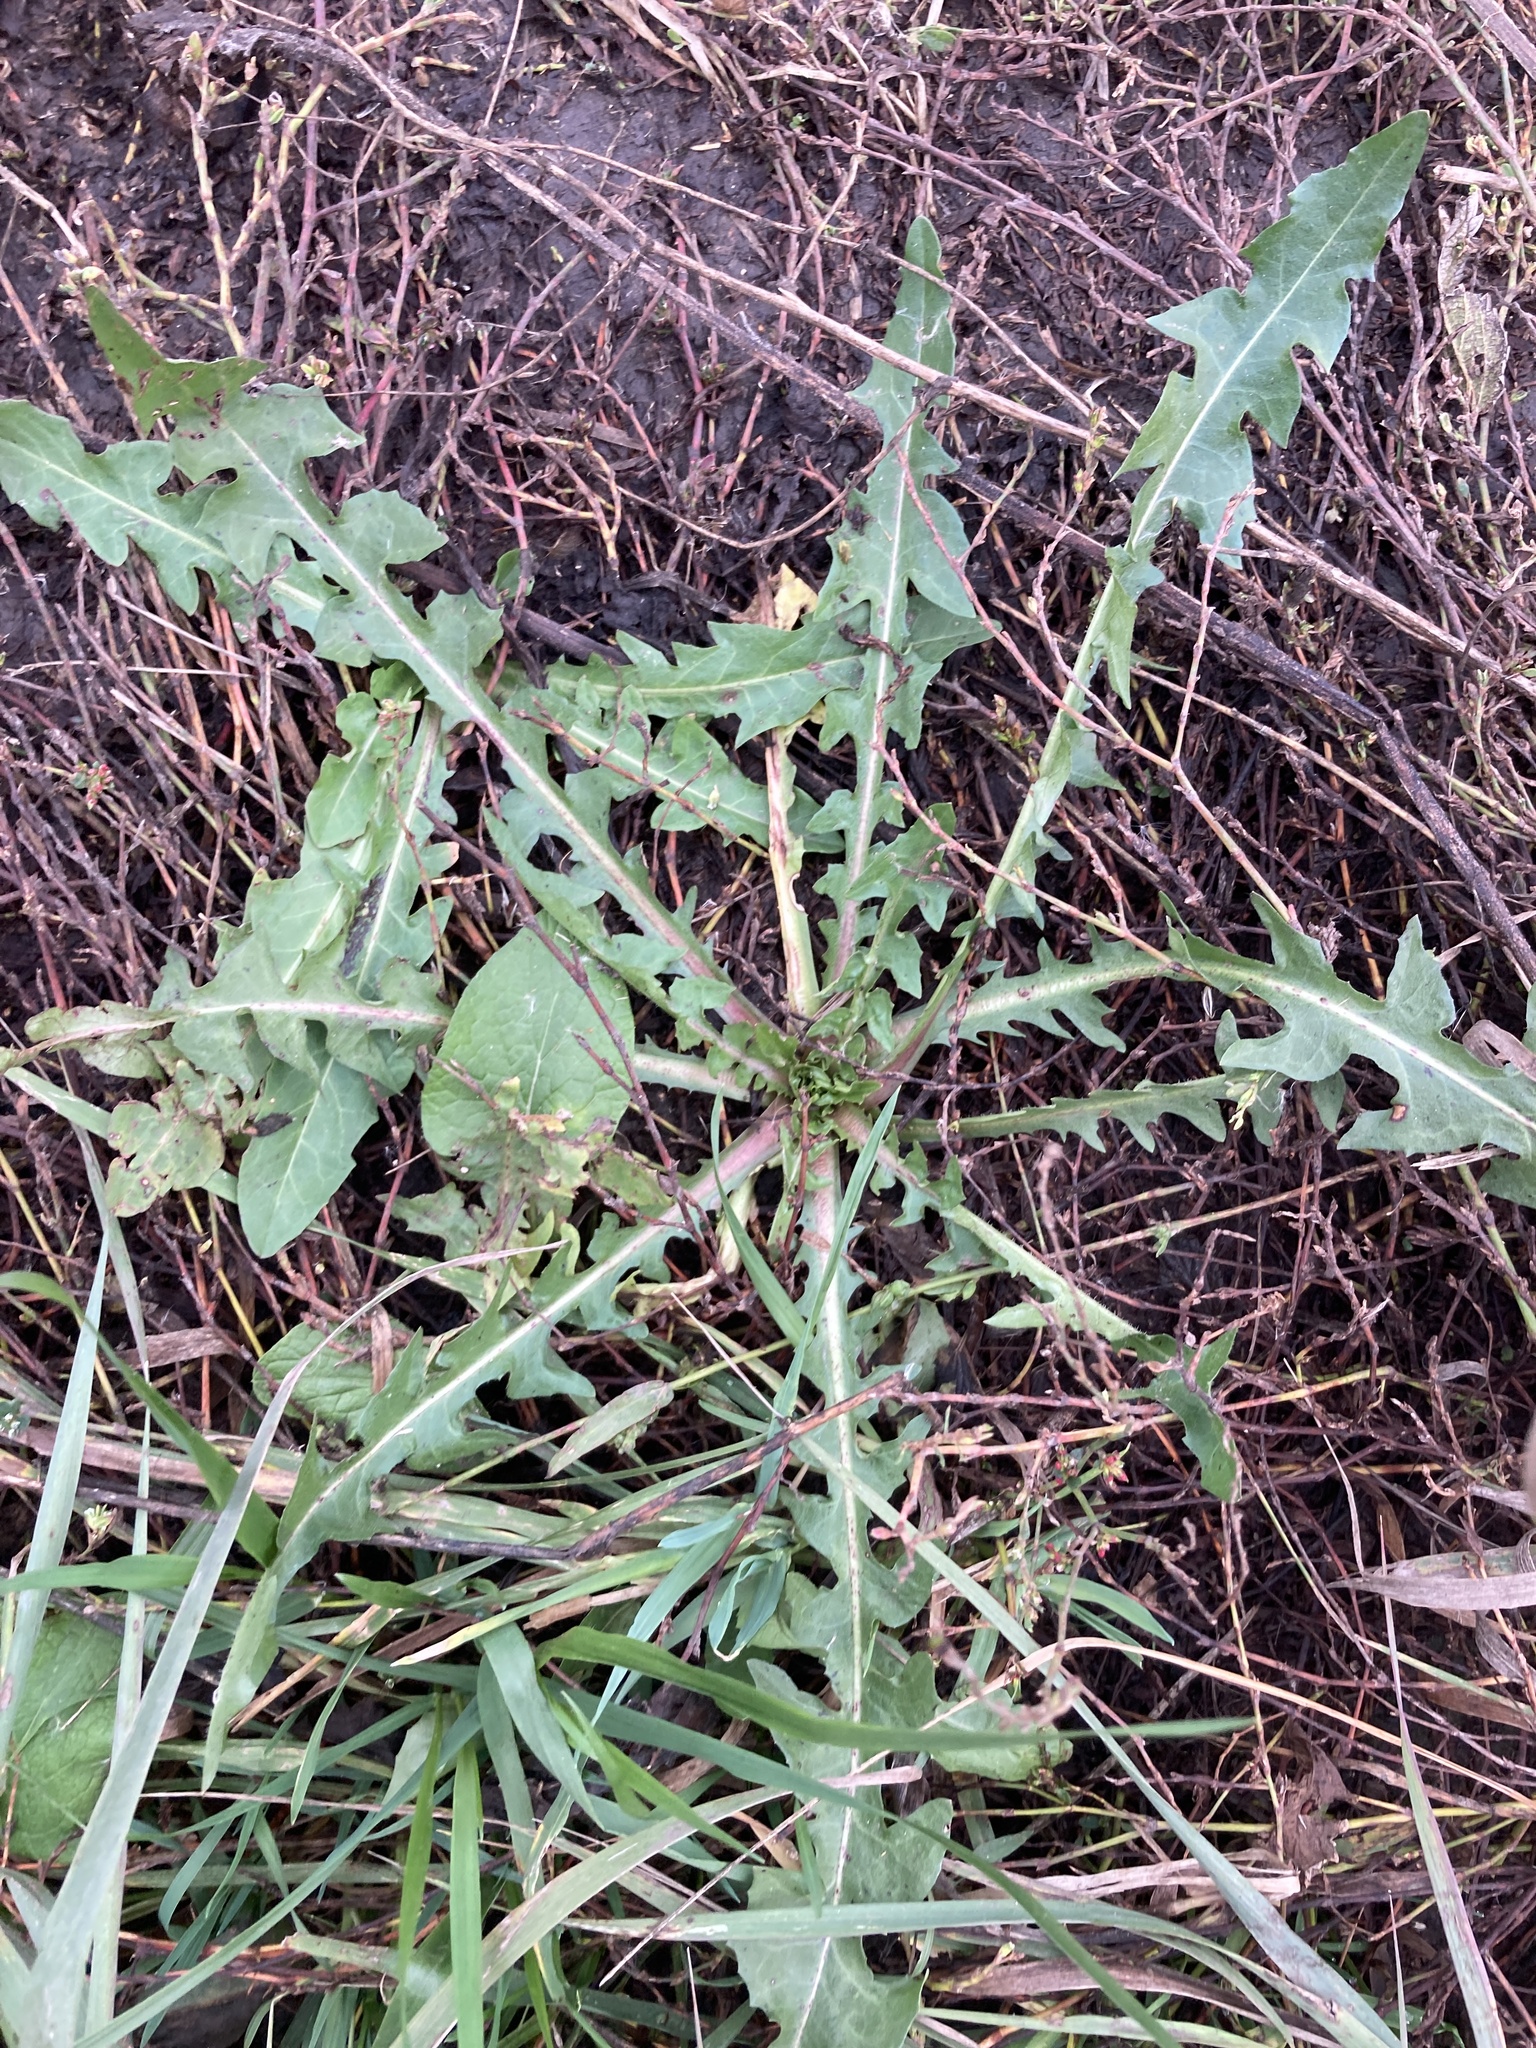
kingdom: Plantae
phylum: Tracheophyta
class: Magnoliopsida
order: Asterales
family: Asteraceae
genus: Taraxacum
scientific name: Taraxacum officinale
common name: Common dandelion
